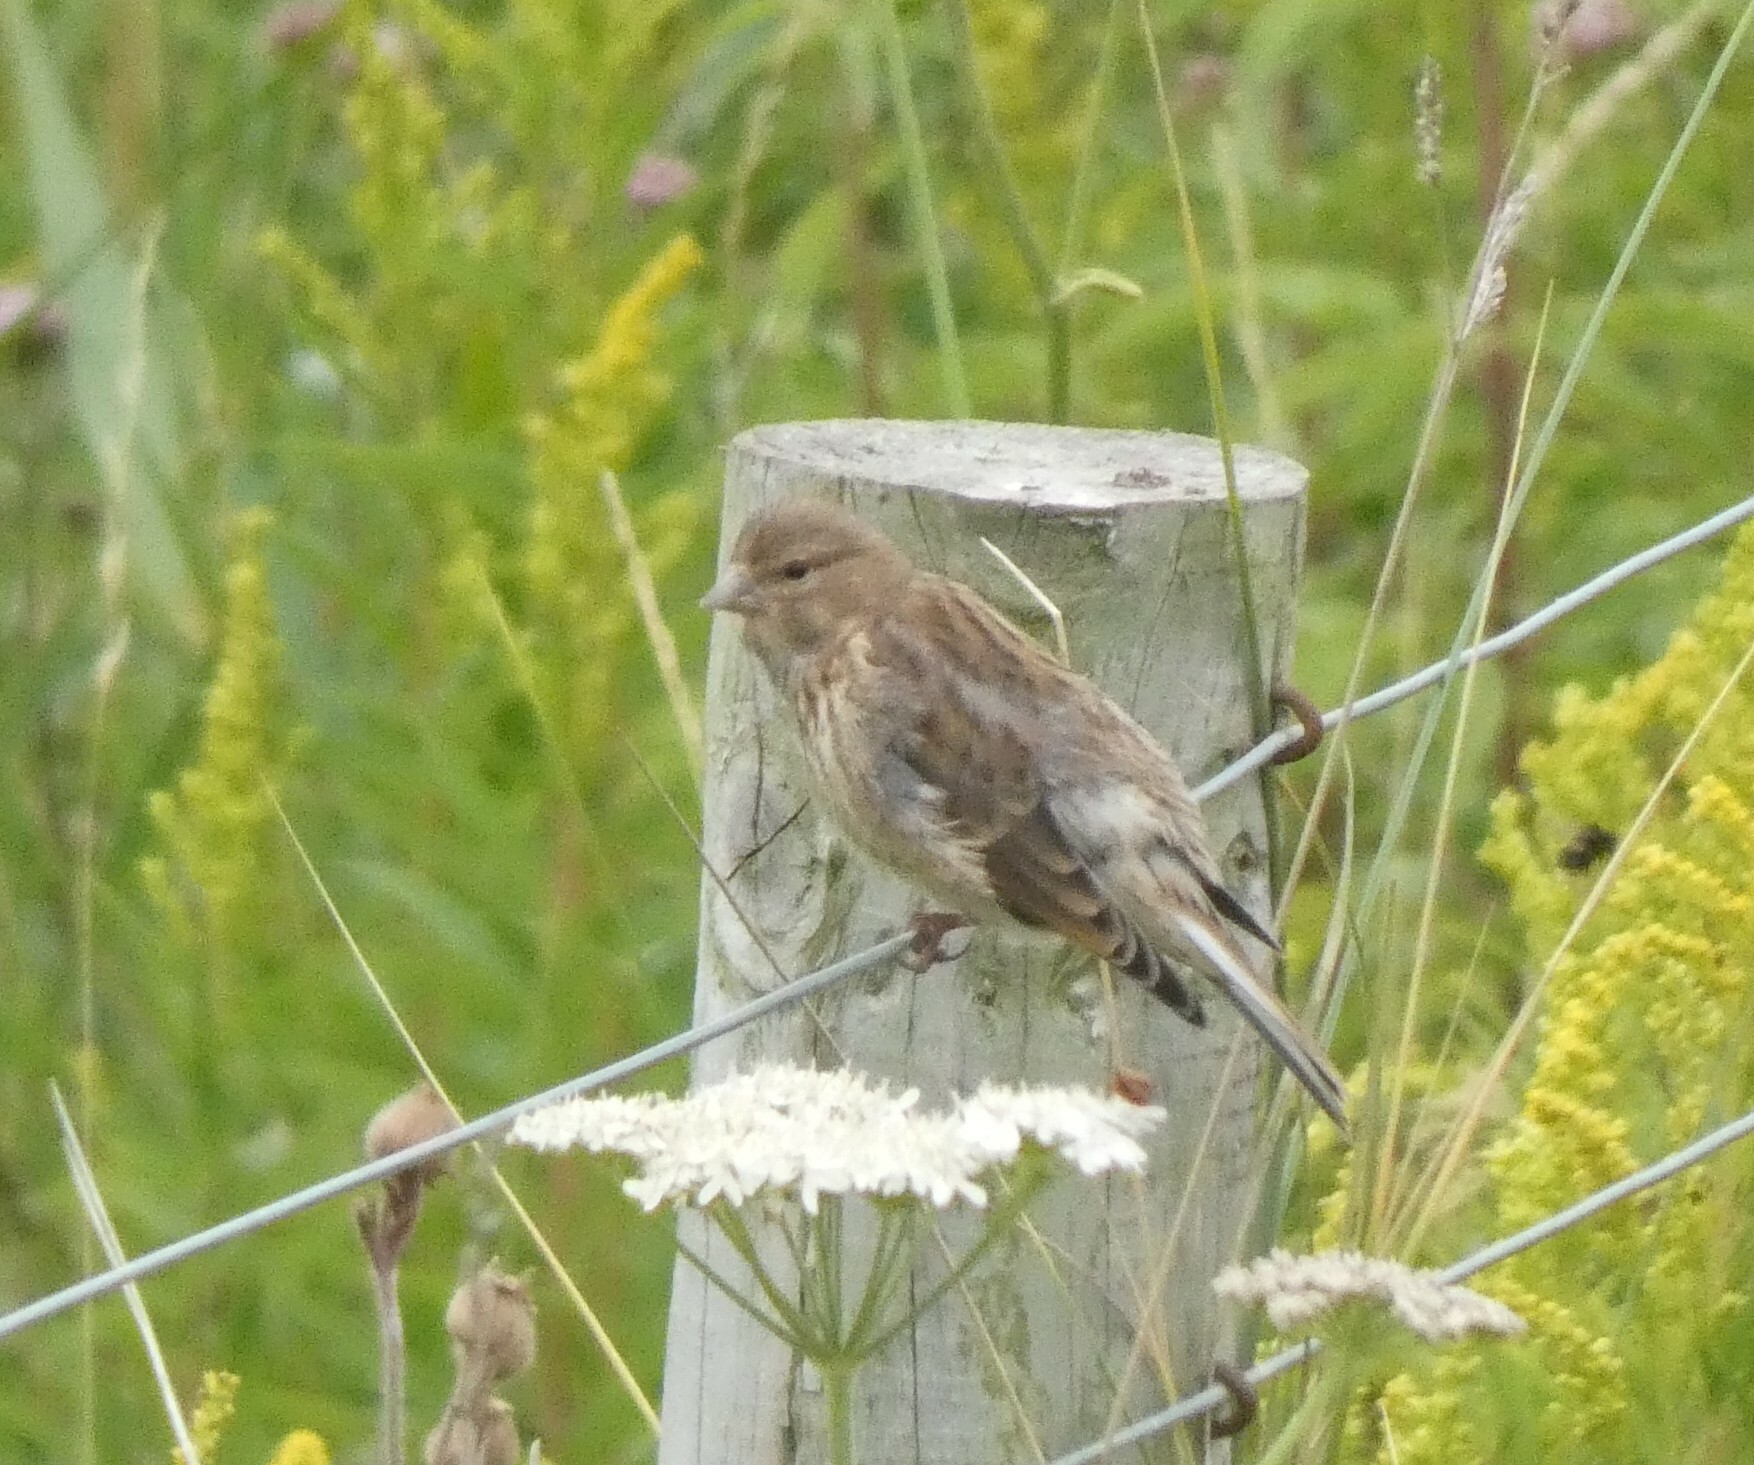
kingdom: Animalia
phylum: Chordata
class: Aves
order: Passeriformes
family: Fringillidae
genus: Linaria
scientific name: Linaria cannabina
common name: Common linnet
